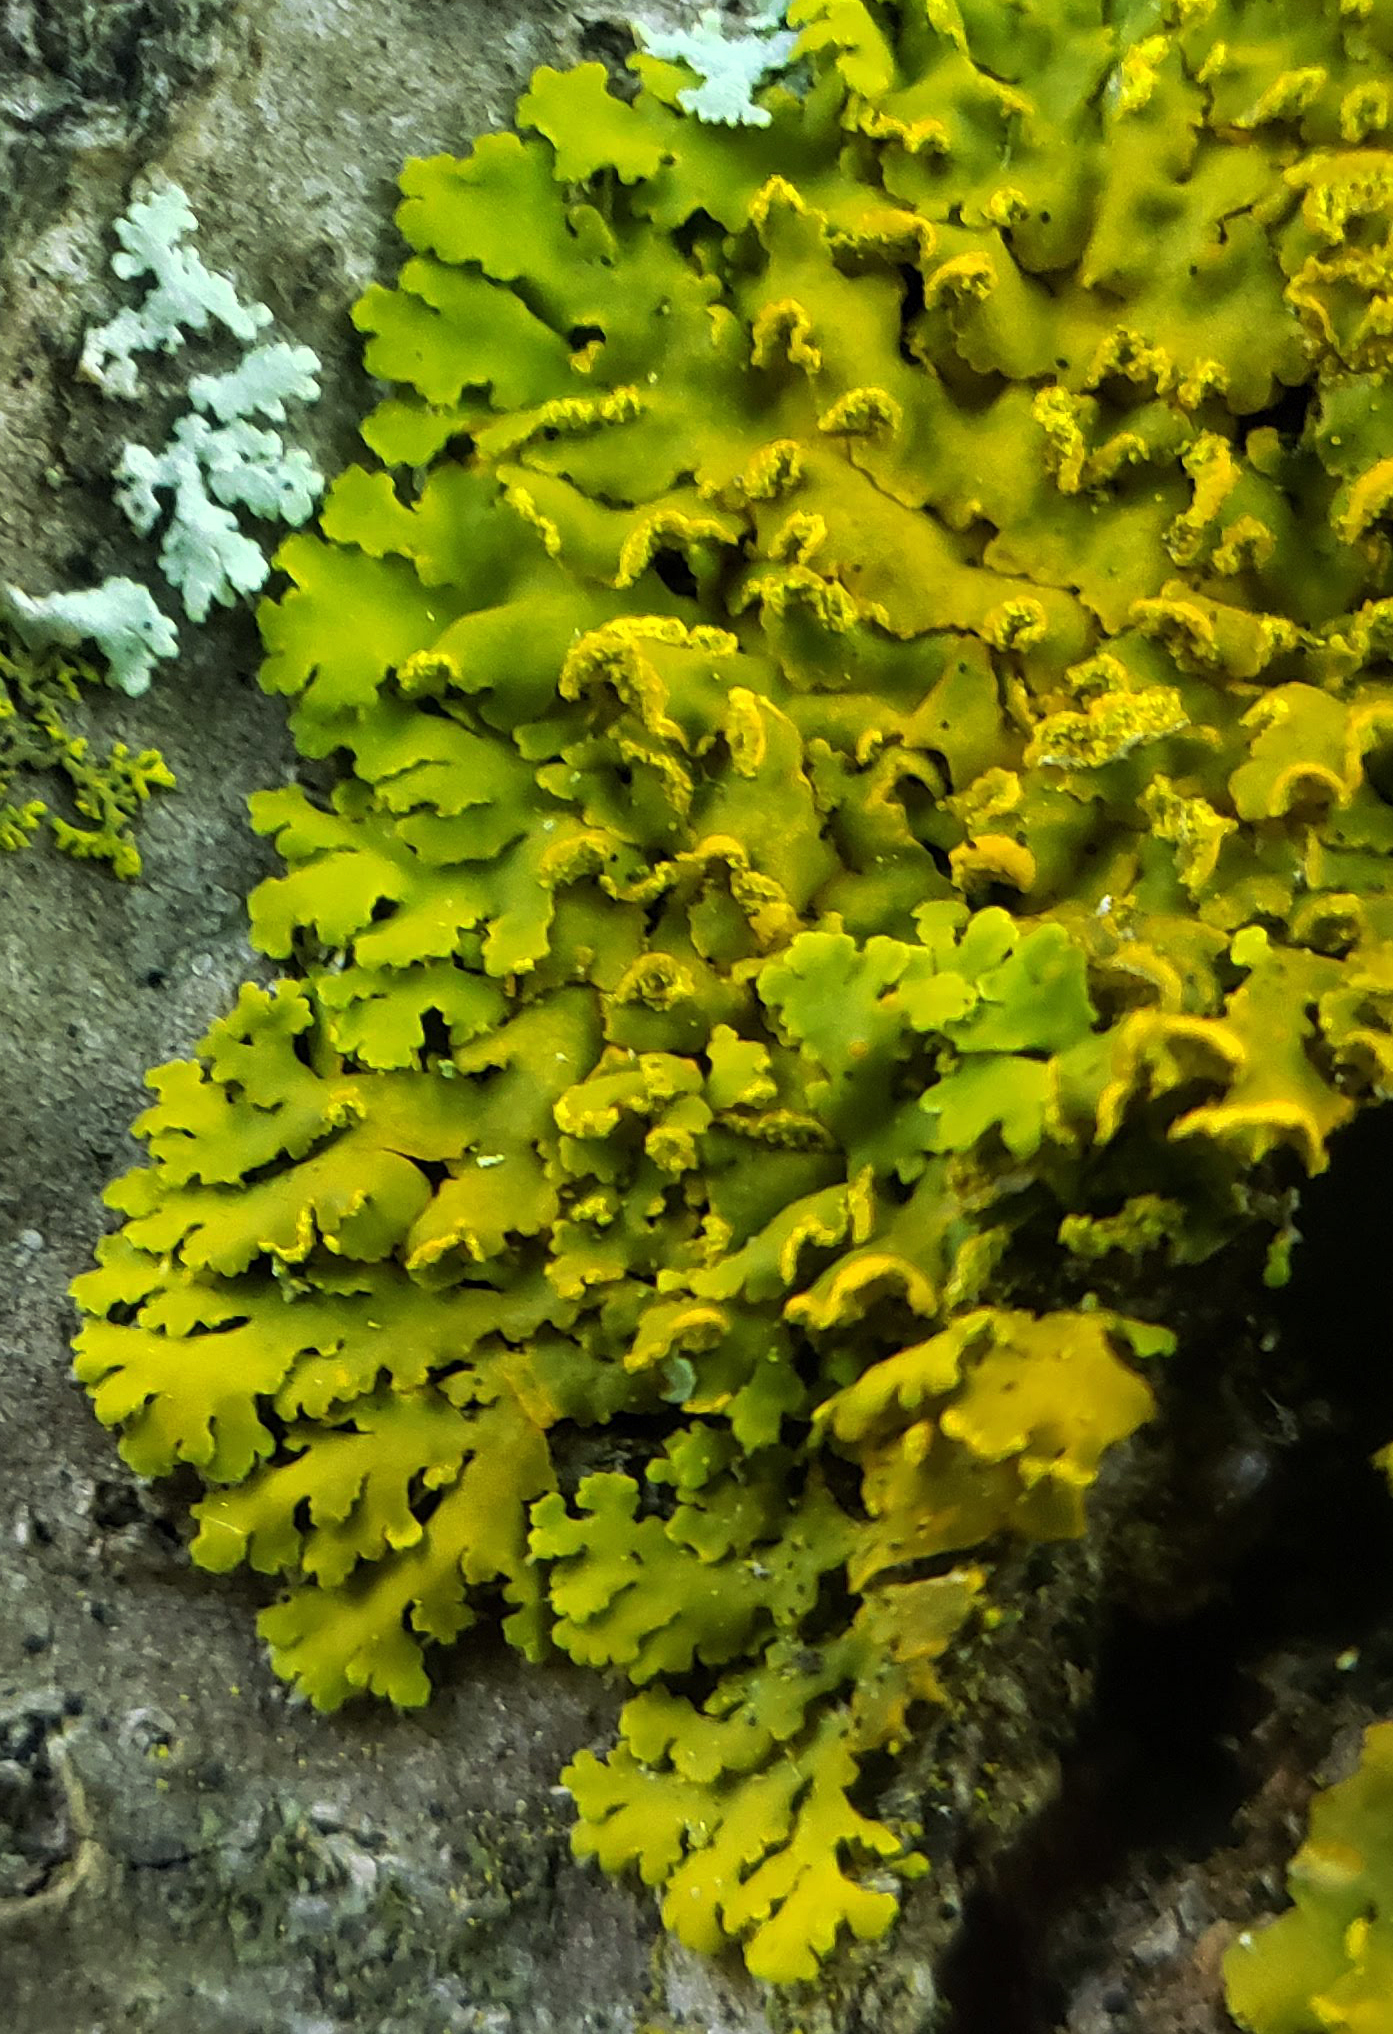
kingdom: Fungi
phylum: Ascomycota
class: Lecanoromycetes
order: Teloschistales
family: Teloschistaceae
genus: Oxneria
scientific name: Oxneria fallax
